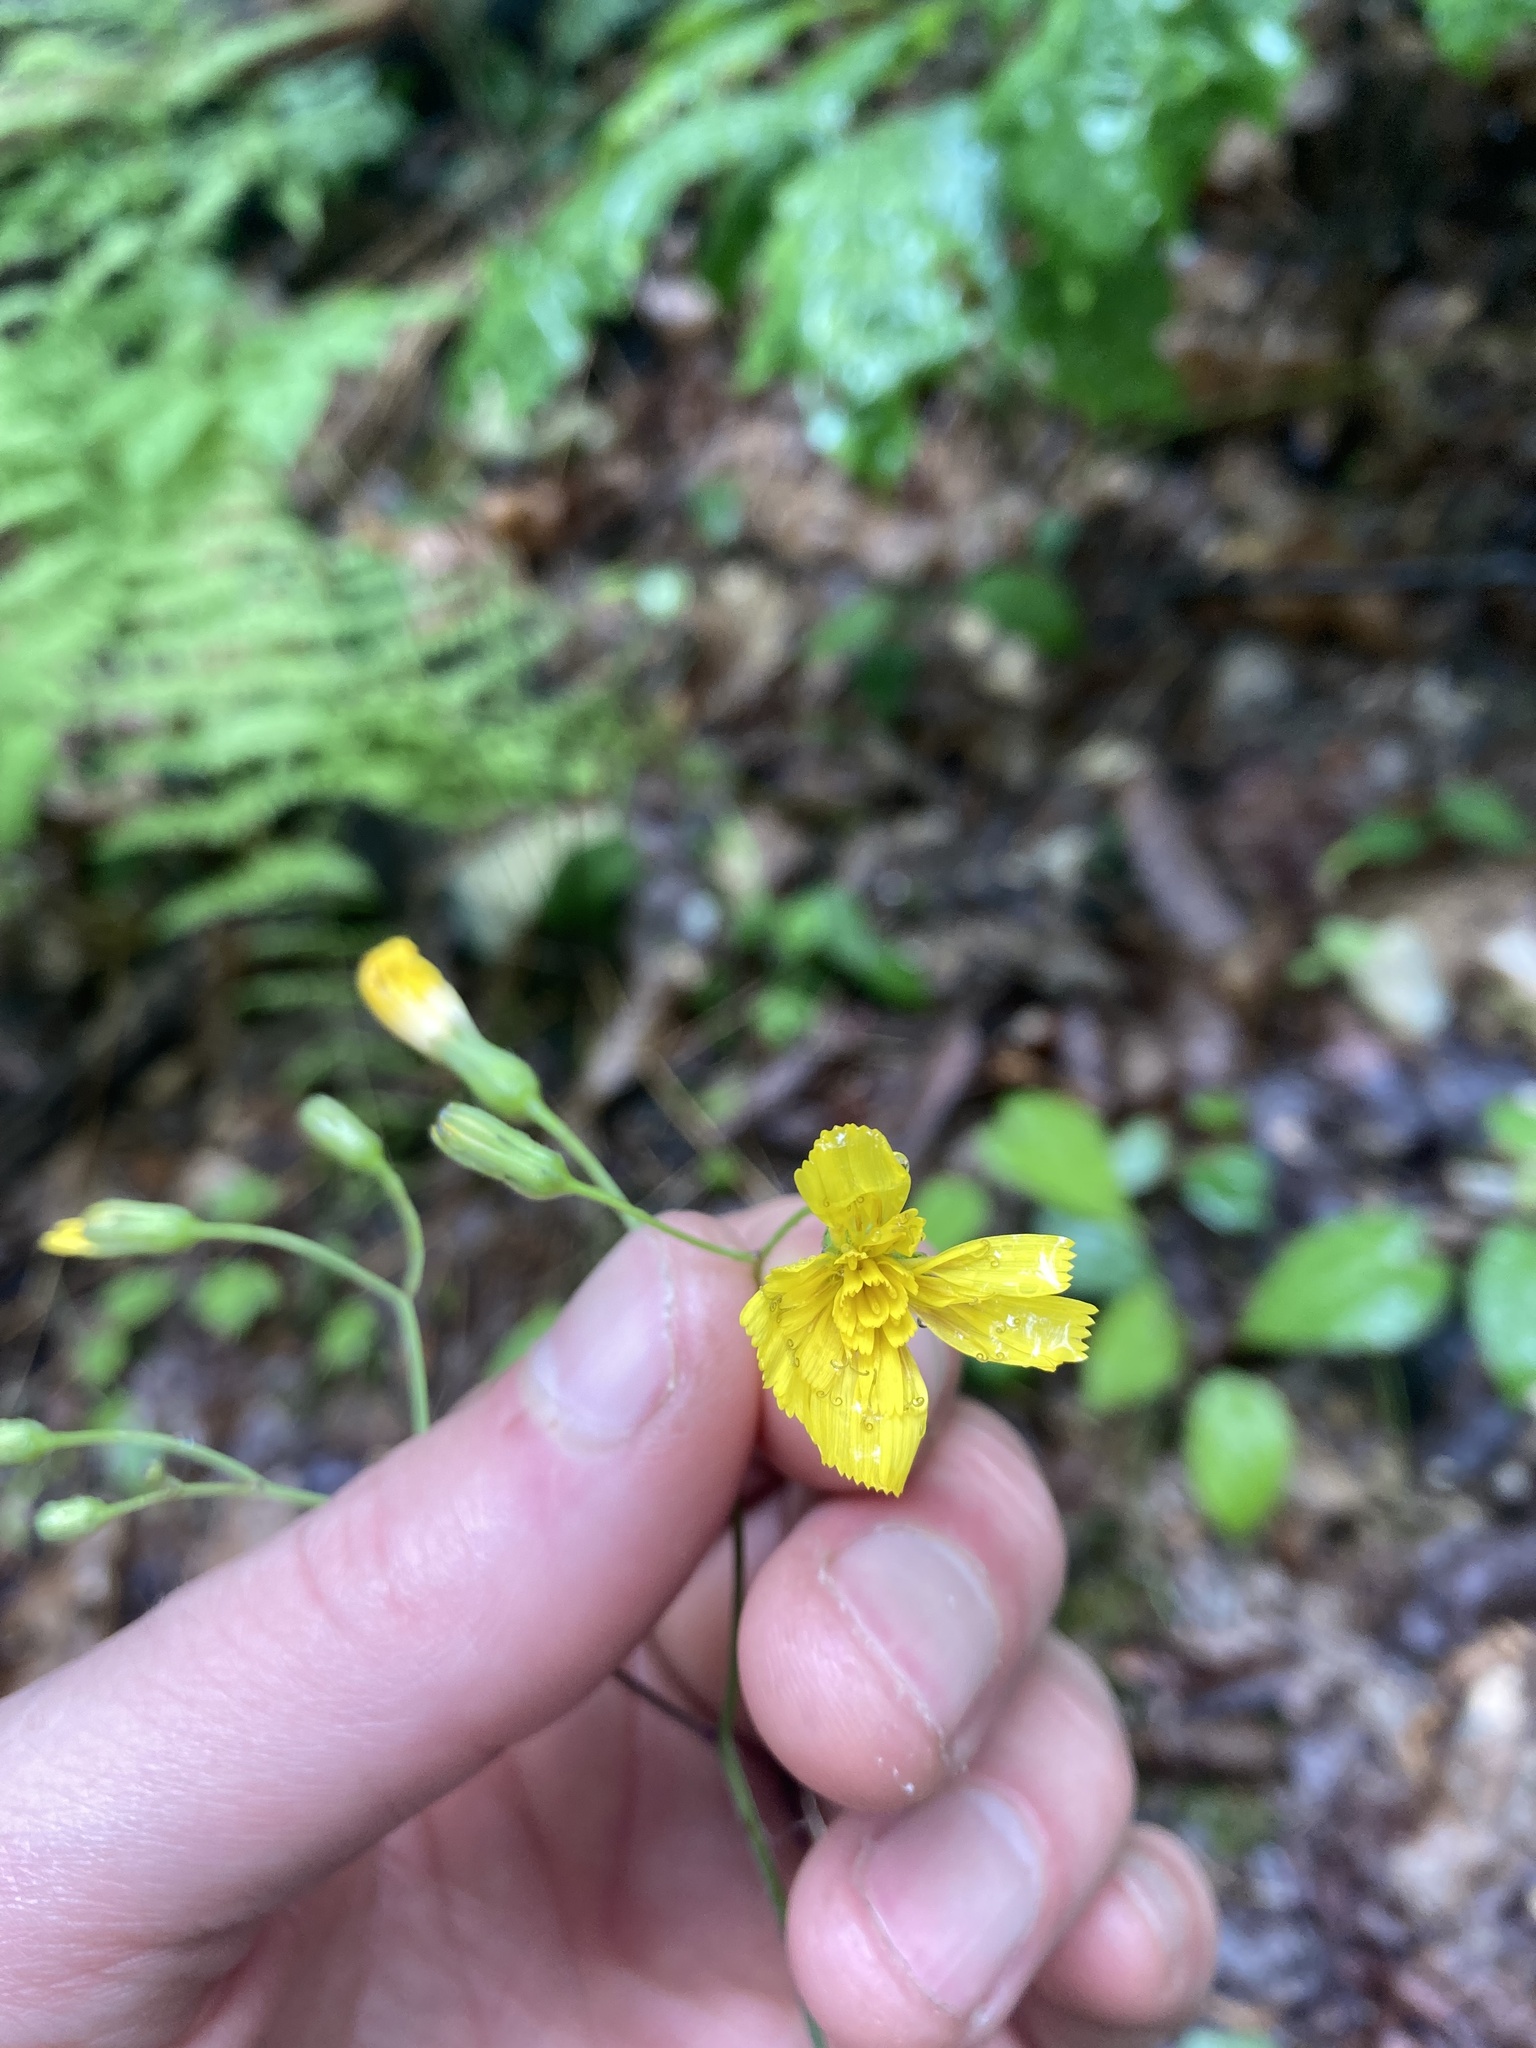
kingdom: Plantae
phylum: Tracheophyta
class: Magnoliopsida
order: Asterales
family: Asteraceae
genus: Hieracium
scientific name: Hieracium venosum
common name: Rattlesnake hawkweed
